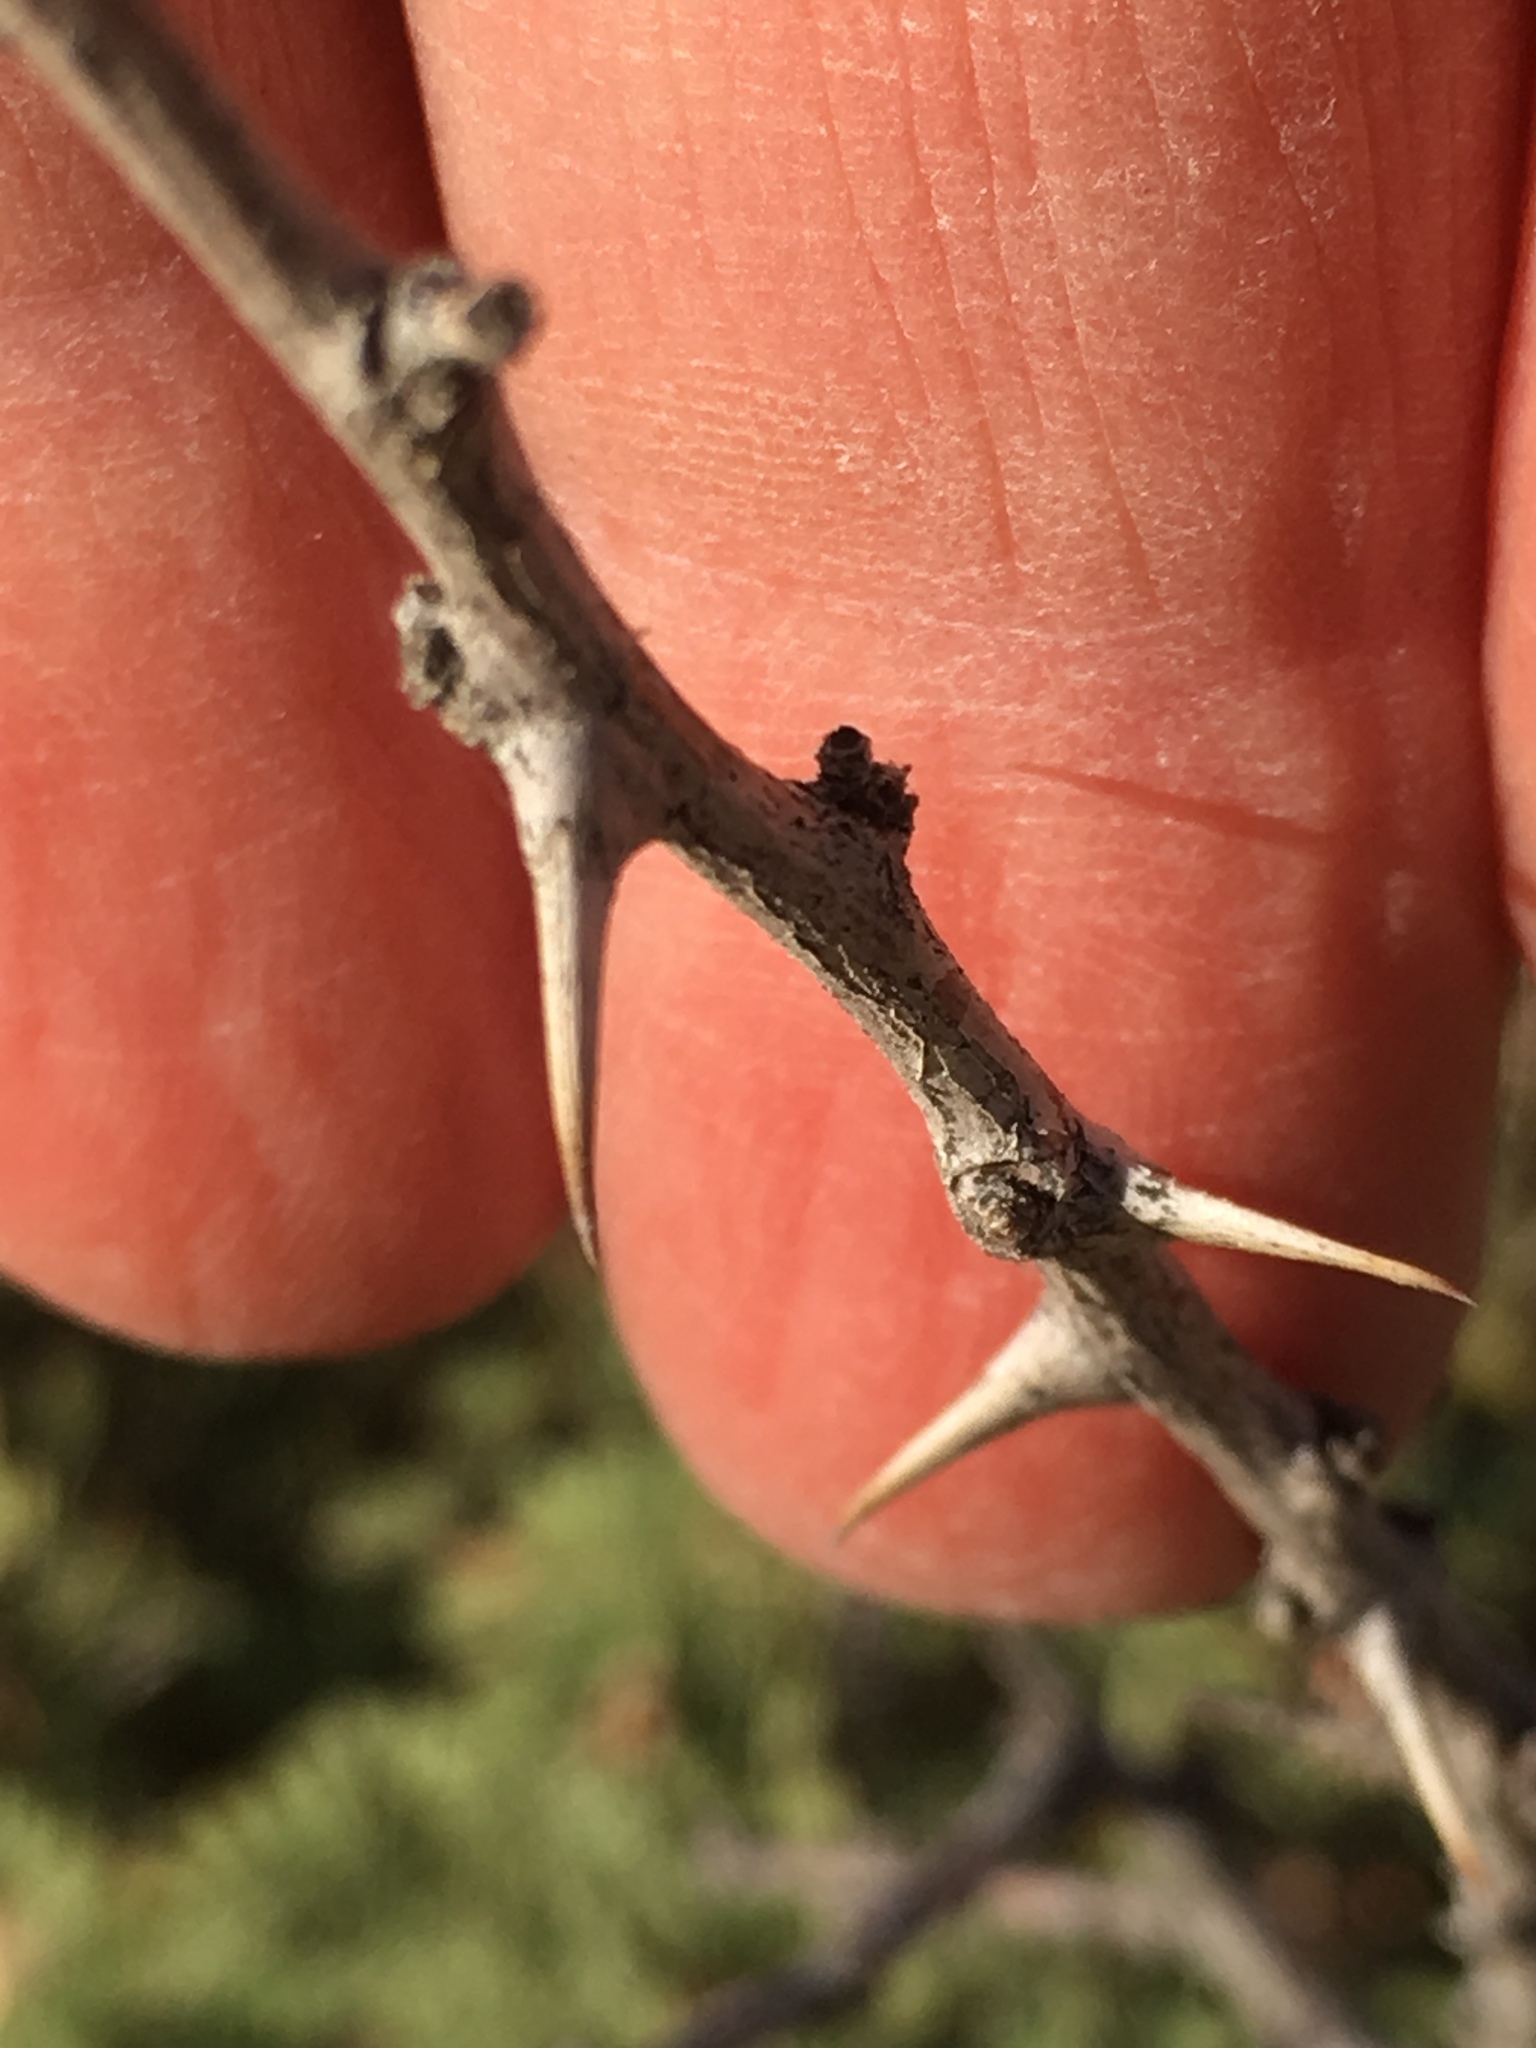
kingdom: Plantae
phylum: Tracheophyta
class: Magnoliopsida
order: Fabales
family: Fabaceae
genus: Senegalia
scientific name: Senegalia greggii
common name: Texas-mimosa
